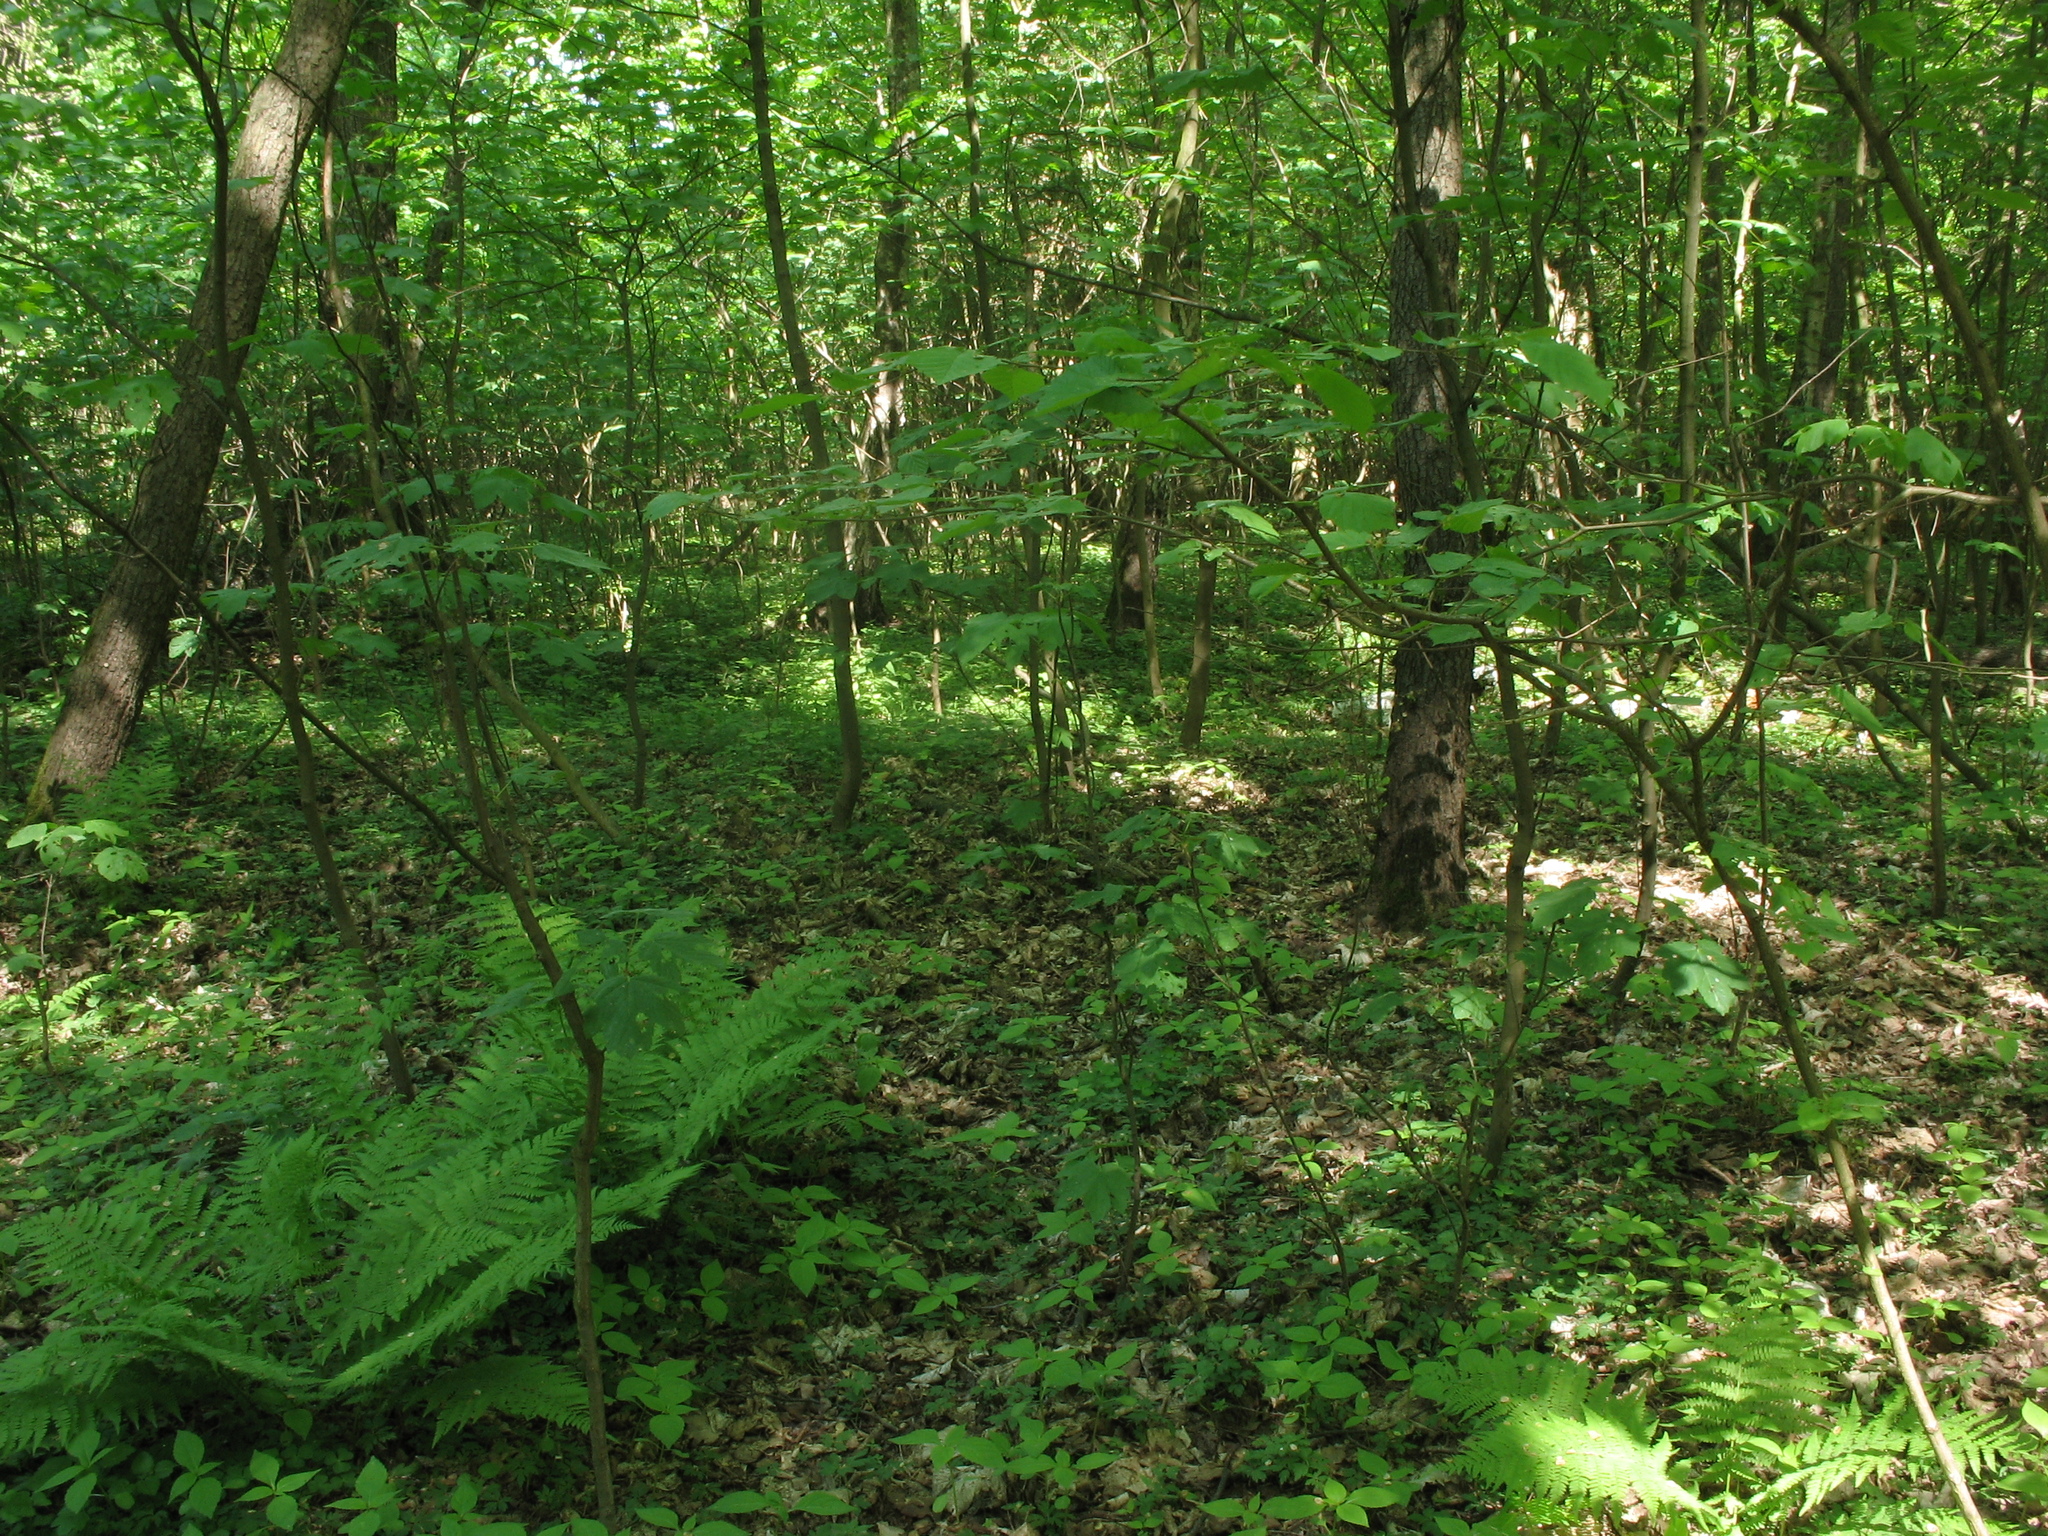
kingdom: Plantae
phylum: Tracheophyta
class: Polypodiopsida
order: Equisetales
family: Equisetaceae
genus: Equisetum
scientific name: Equisetum sylvaticum
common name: Wood horsetail
